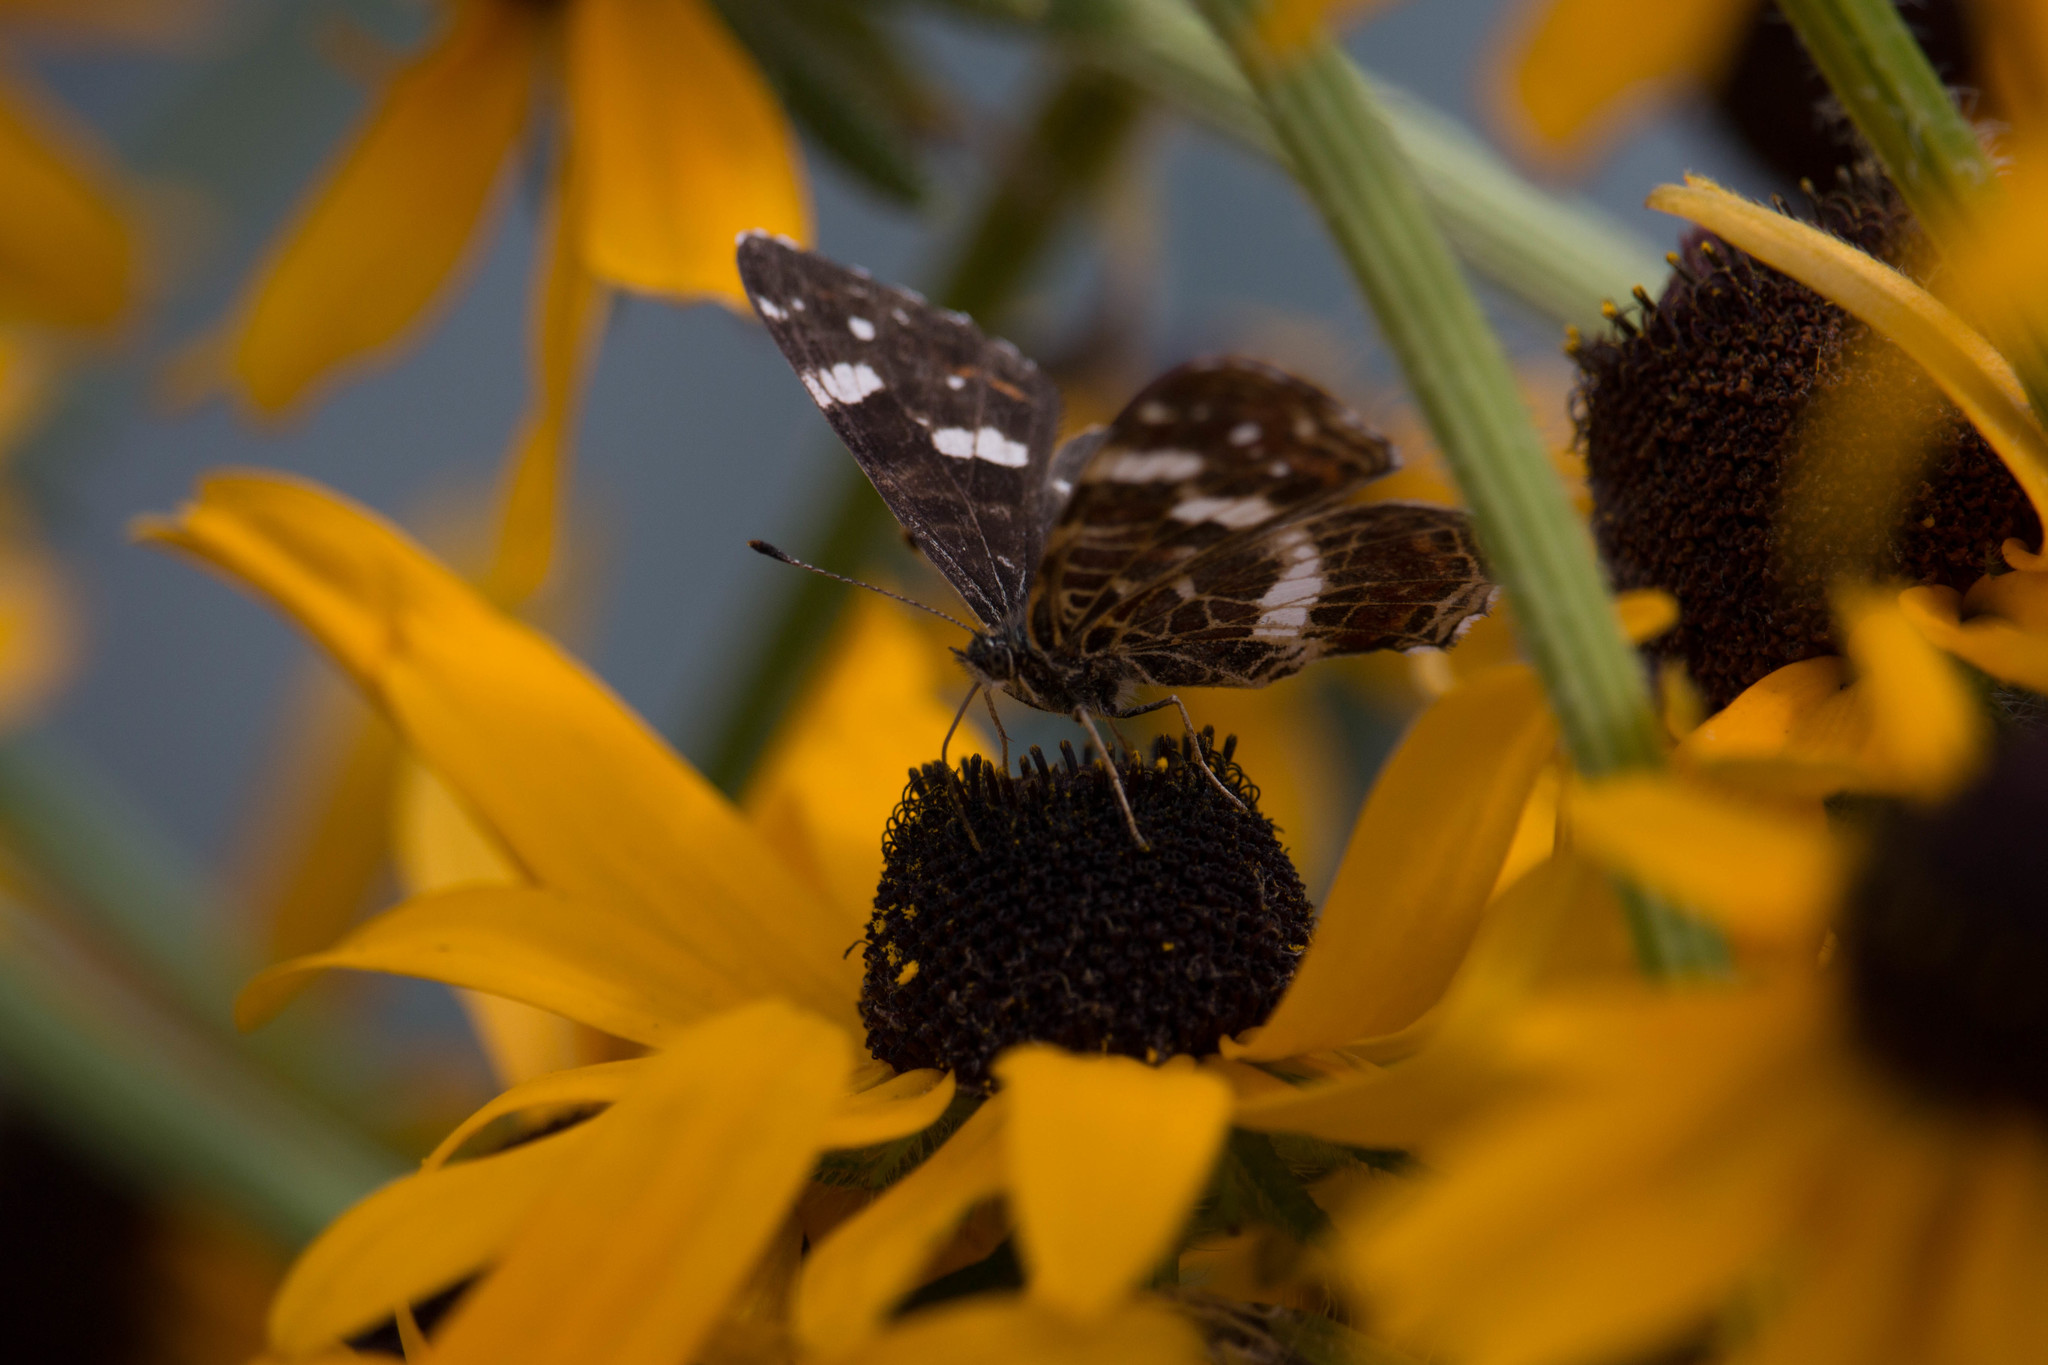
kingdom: Animalia
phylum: Arthropoda
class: Insecta
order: Lepidoptera
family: Nymphalidae
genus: Araschnia
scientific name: Araschnia levana
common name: Map butterfly
